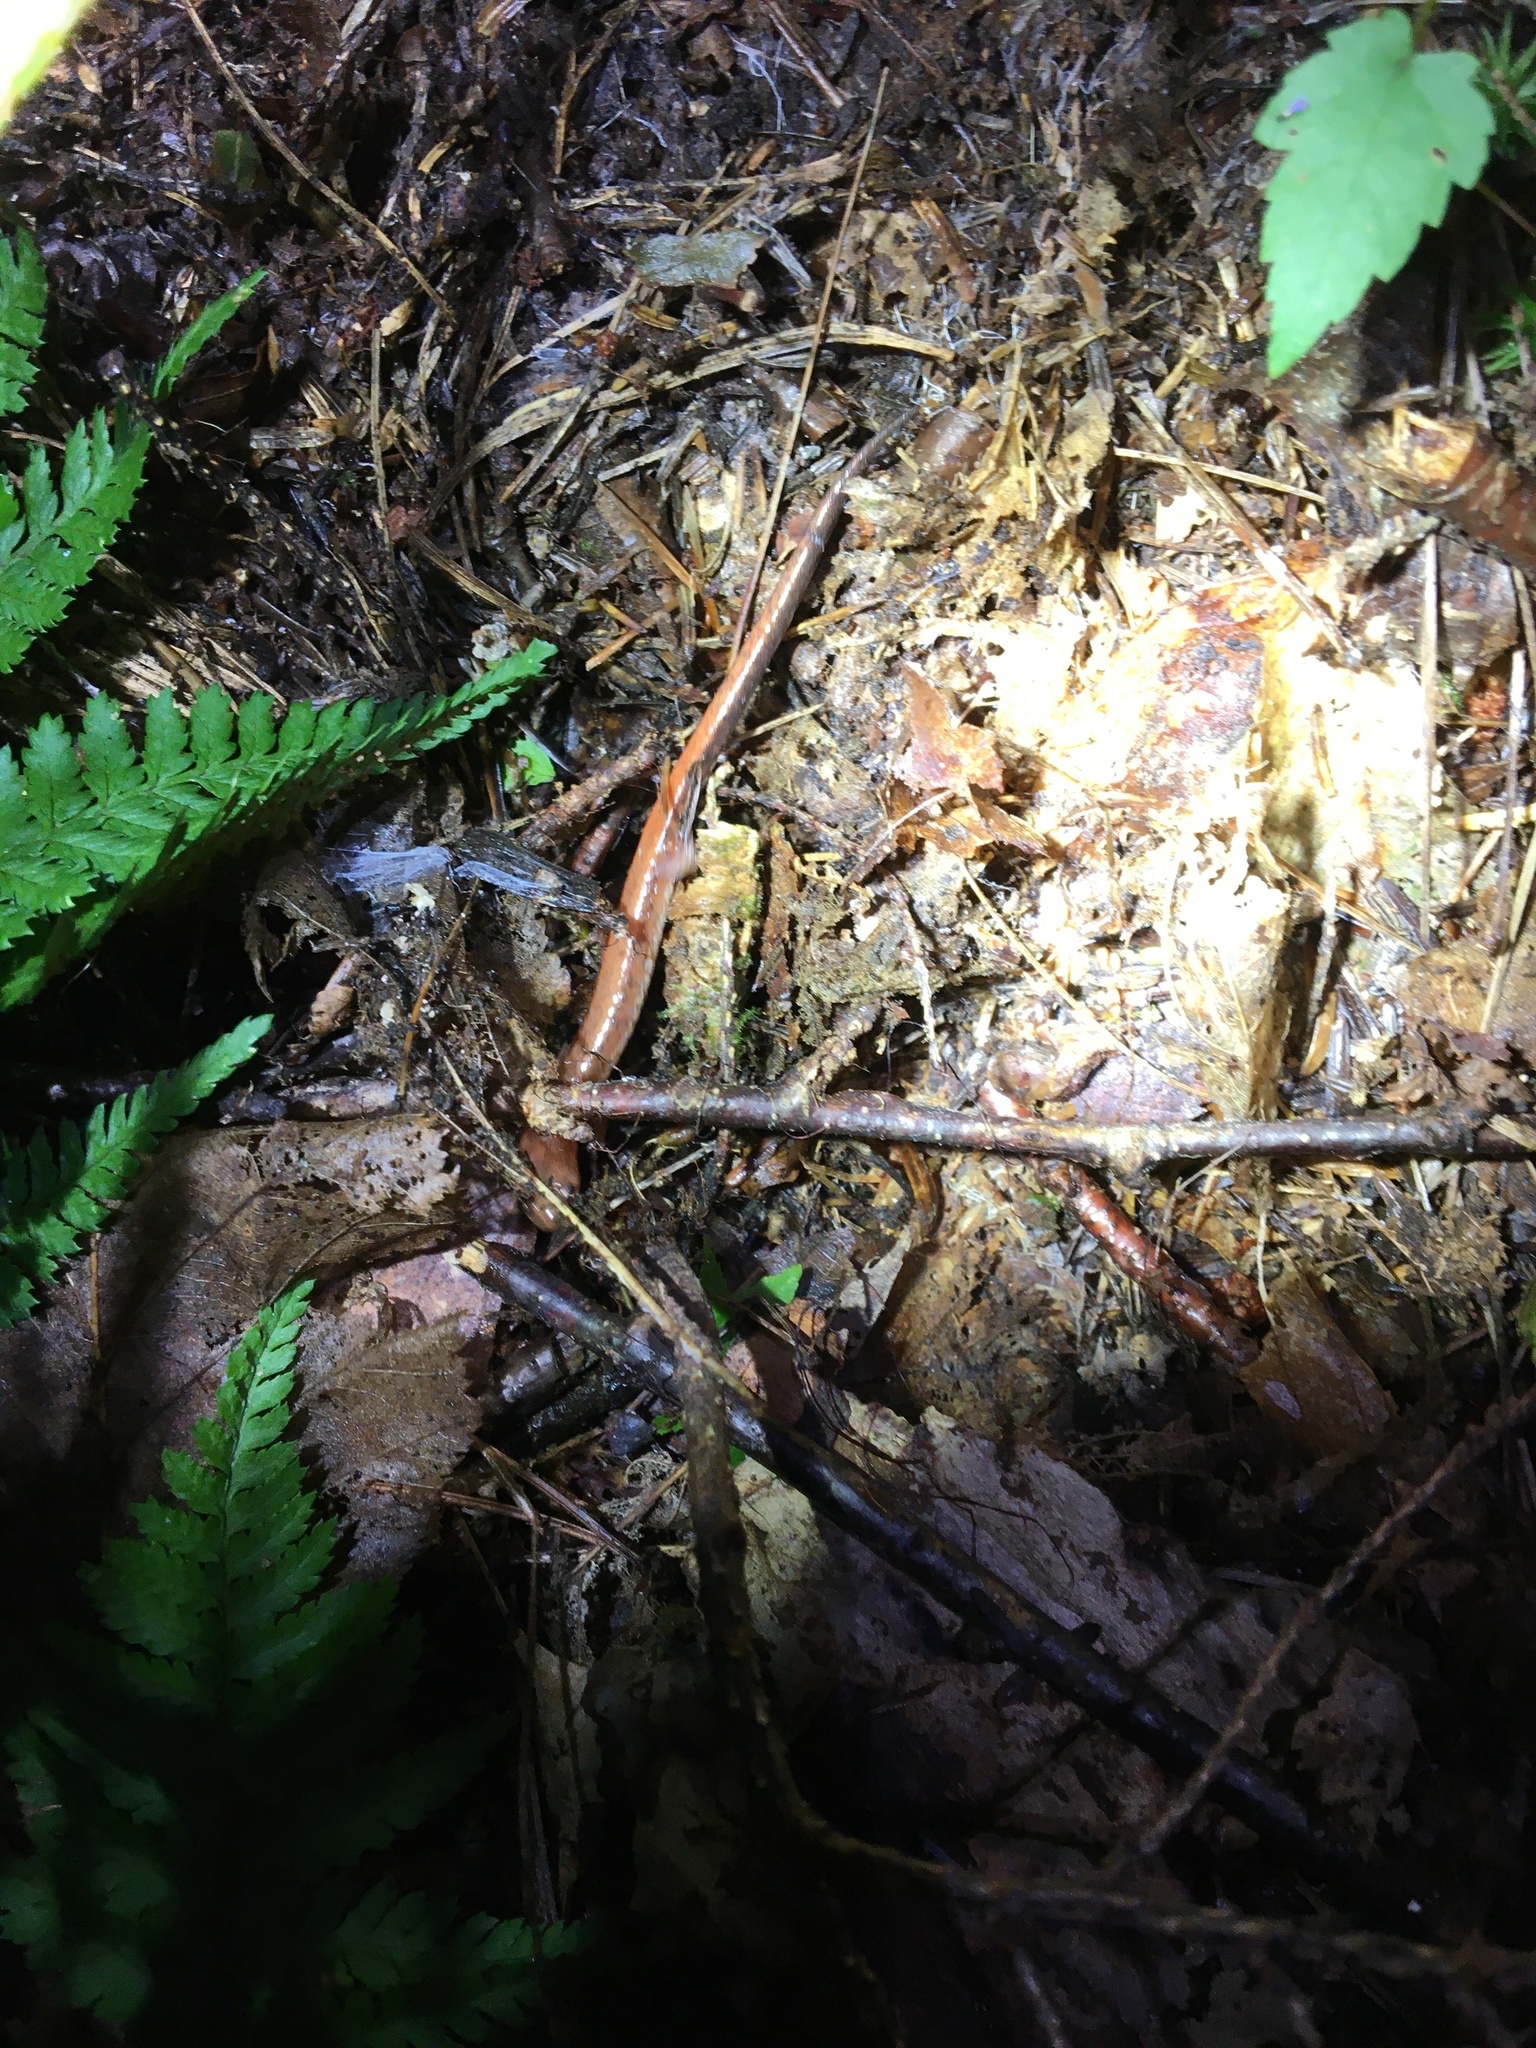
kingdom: Animalia
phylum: Chordata
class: Amphibia
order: Caudata
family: Plethodontidae
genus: Plethodon
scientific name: Plethodon cinereus
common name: Redback salamander
